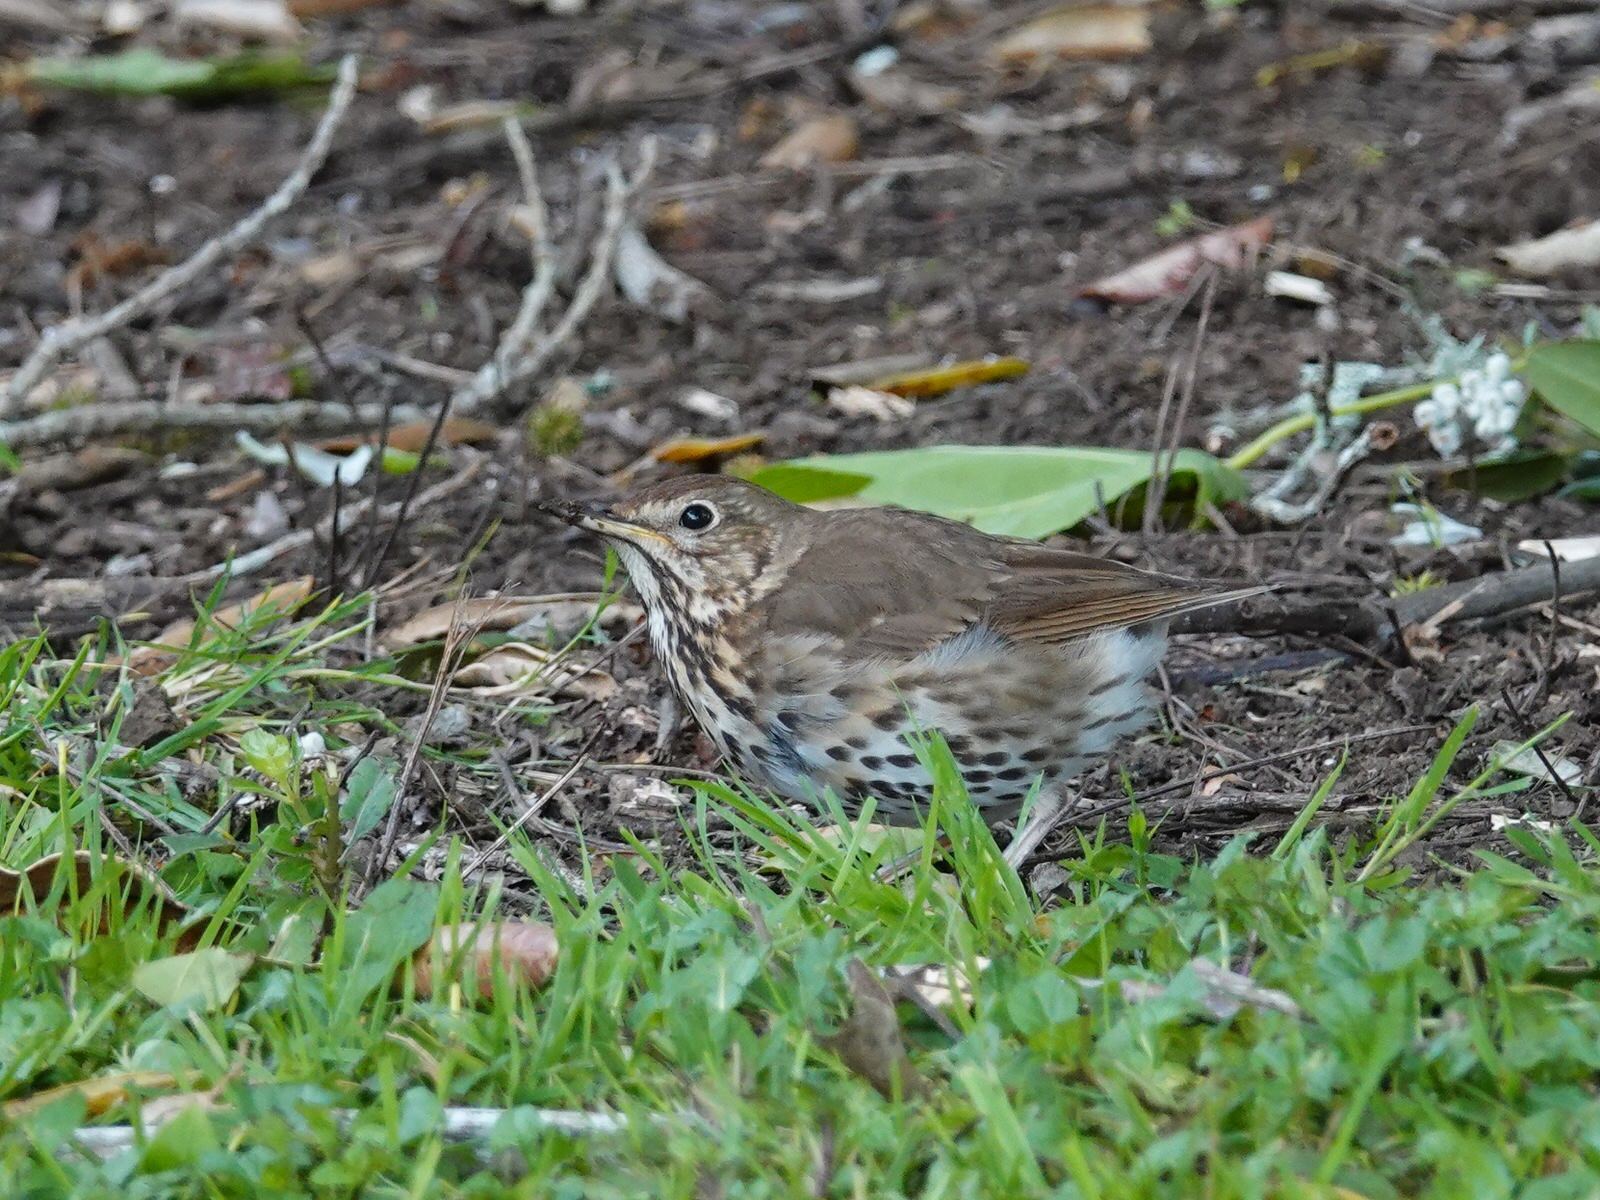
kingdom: Animalia
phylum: Chordata
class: Aves
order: Passeriformes
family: Turdidae
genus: Turdus
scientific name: Turdus philomelos
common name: Song thrush
